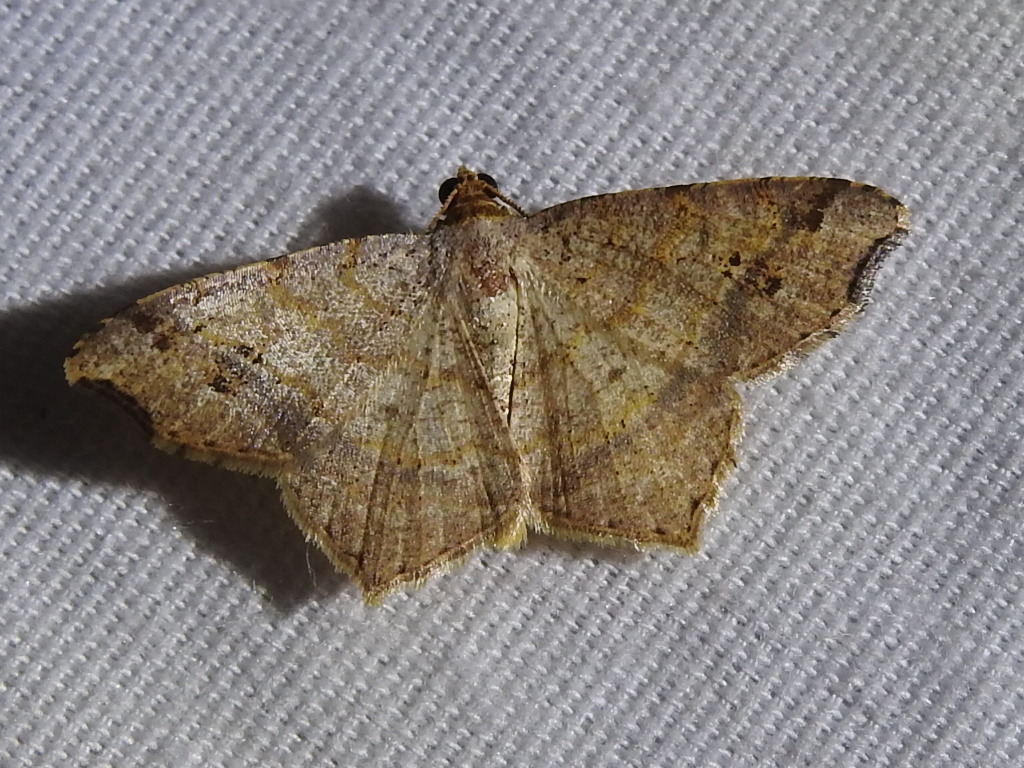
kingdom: Animalia
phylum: Arthropoda
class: Insecta
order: Lepidoptera
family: Geometridae
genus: Macaria
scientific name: Macaria aemulataria
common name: Common angle
